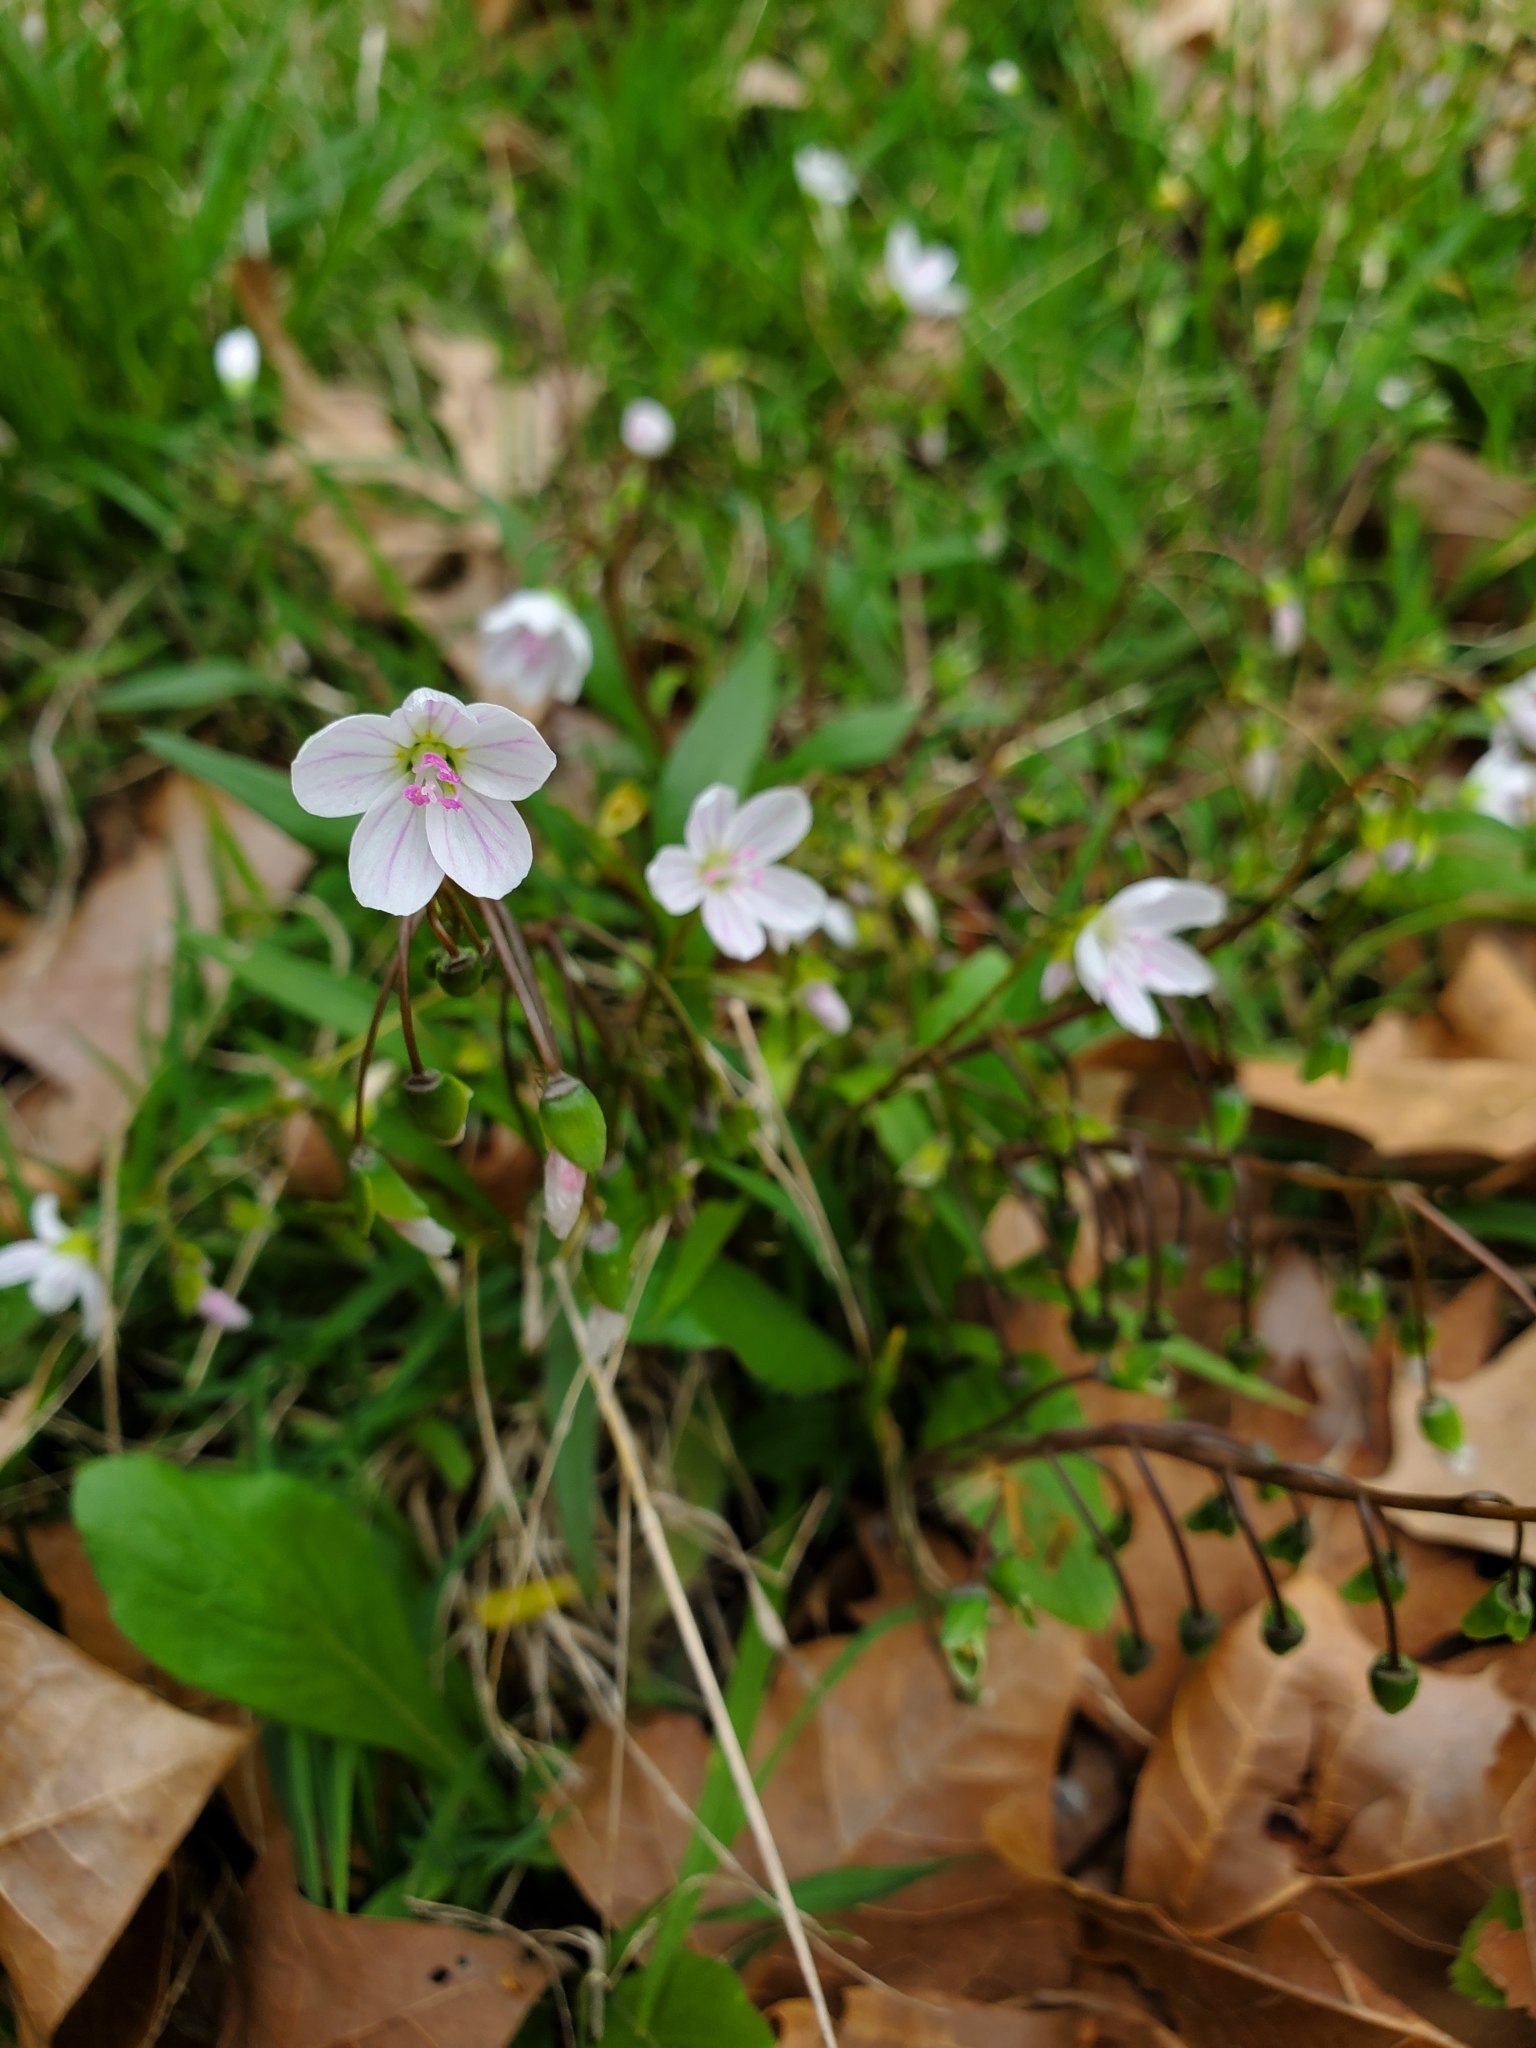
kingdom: Plantae
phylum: Tracheophyta
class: Magnoliopsida
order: Caryophyllales
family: Montiaceae
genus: Claytonia
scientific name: Claytonia virginica
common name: Virginia springbeauty
